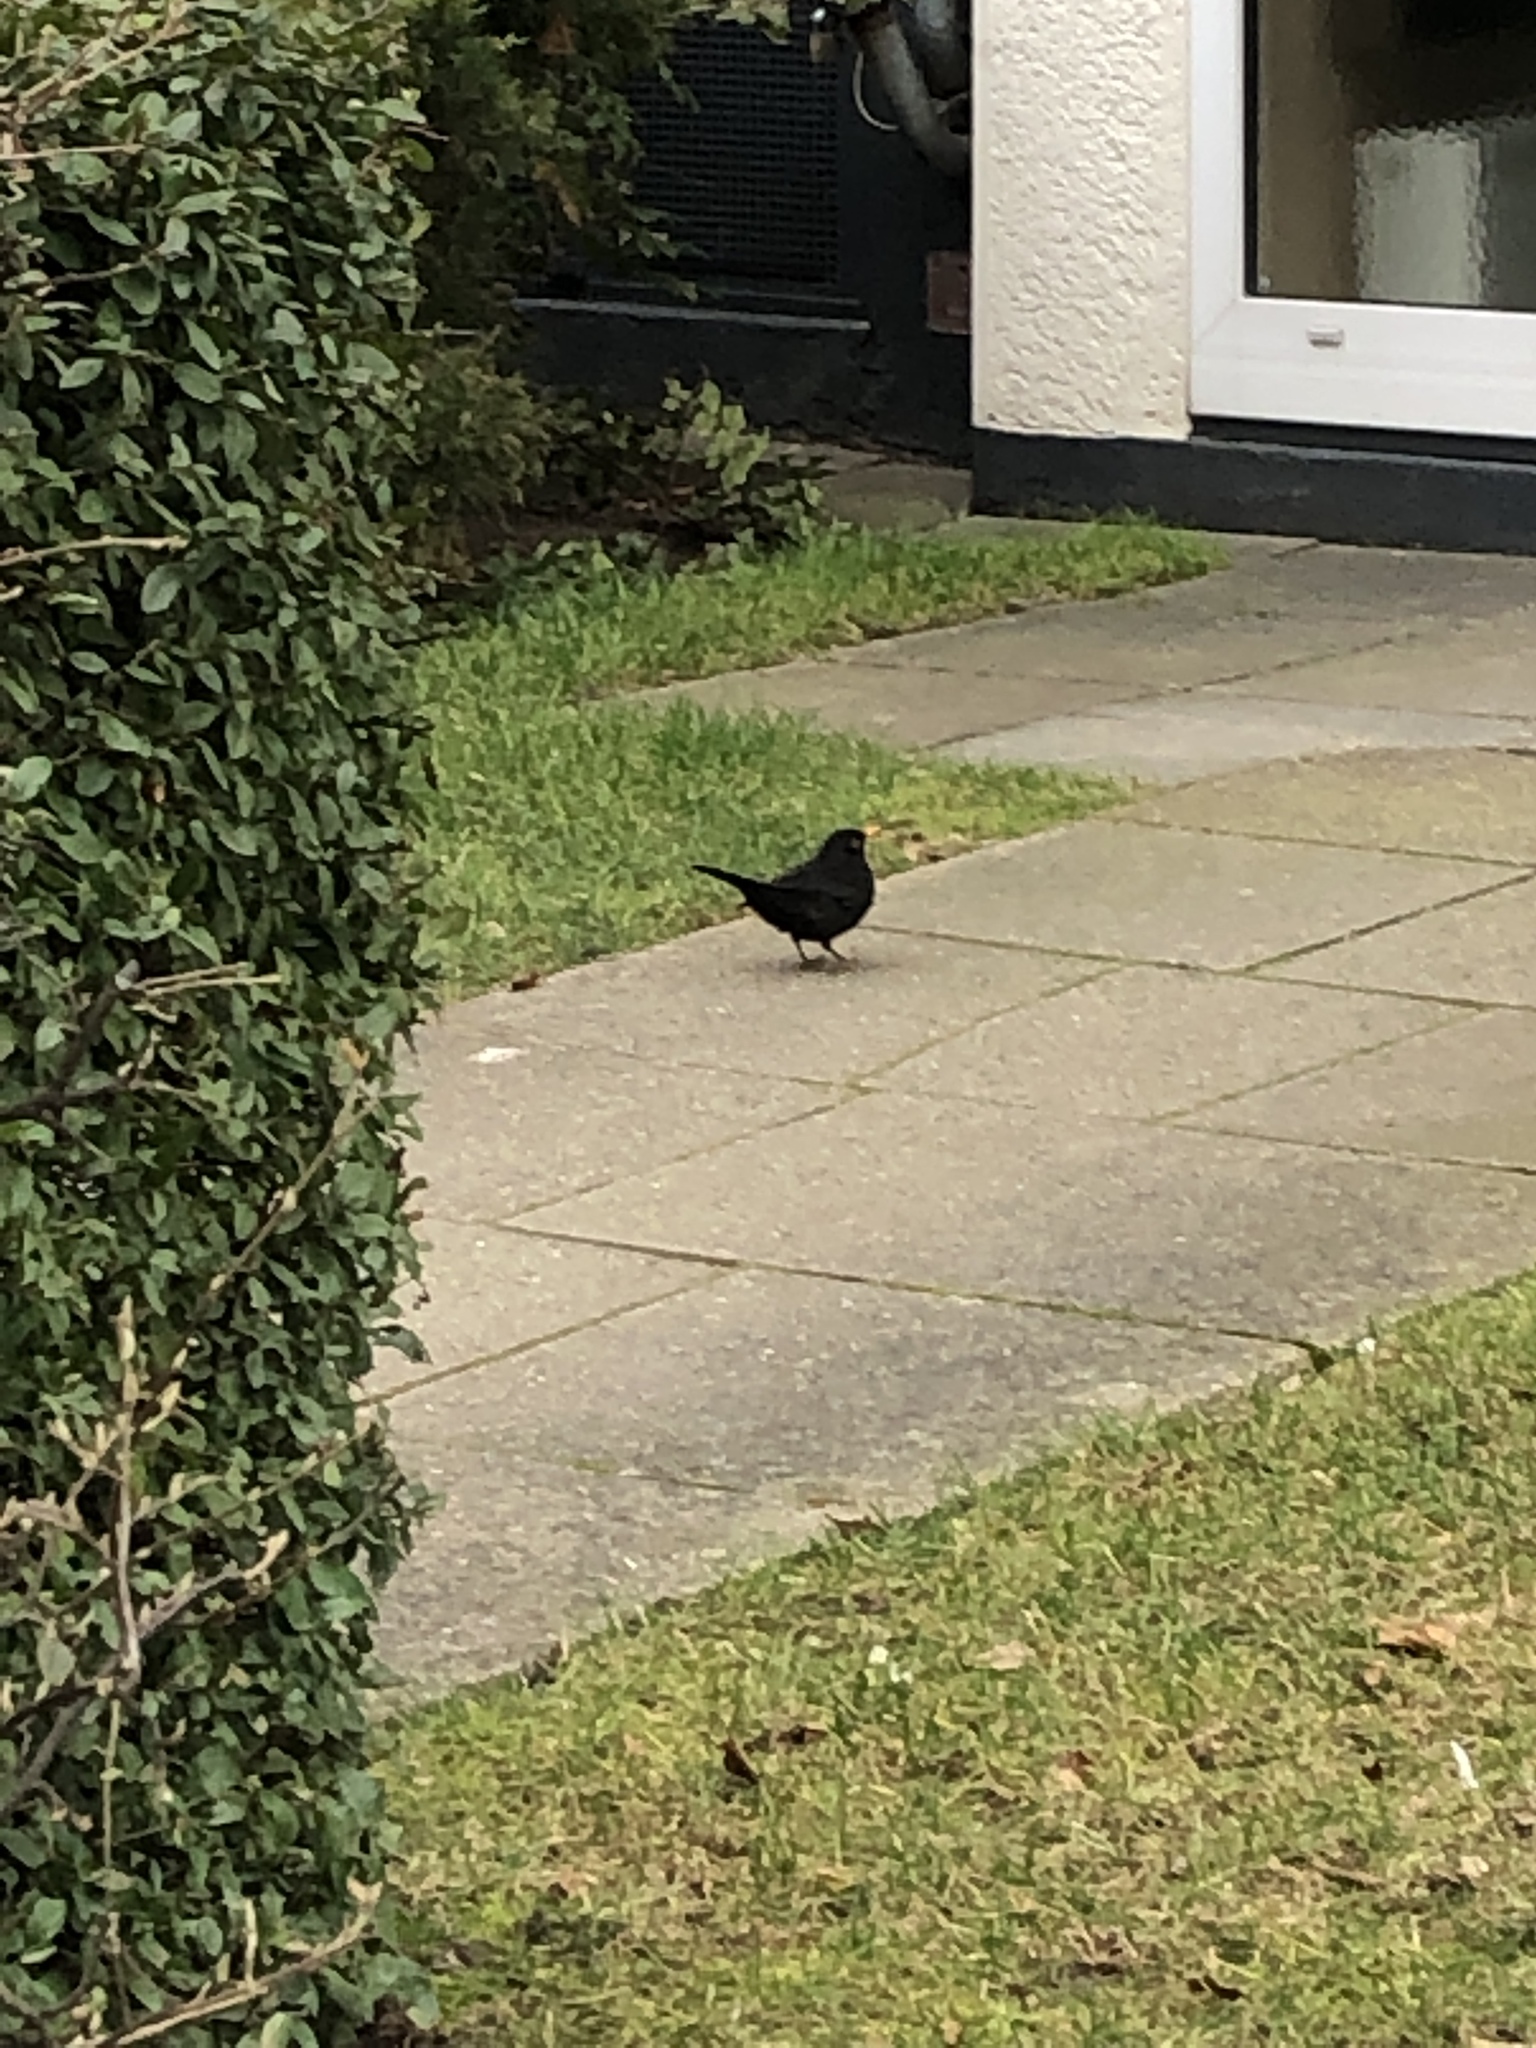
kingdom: Animalia
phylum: Chordata
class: Aves
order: Passeriformes
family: Turdidae
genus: Turdus
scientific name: Turdus merula
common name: Common blackbird
